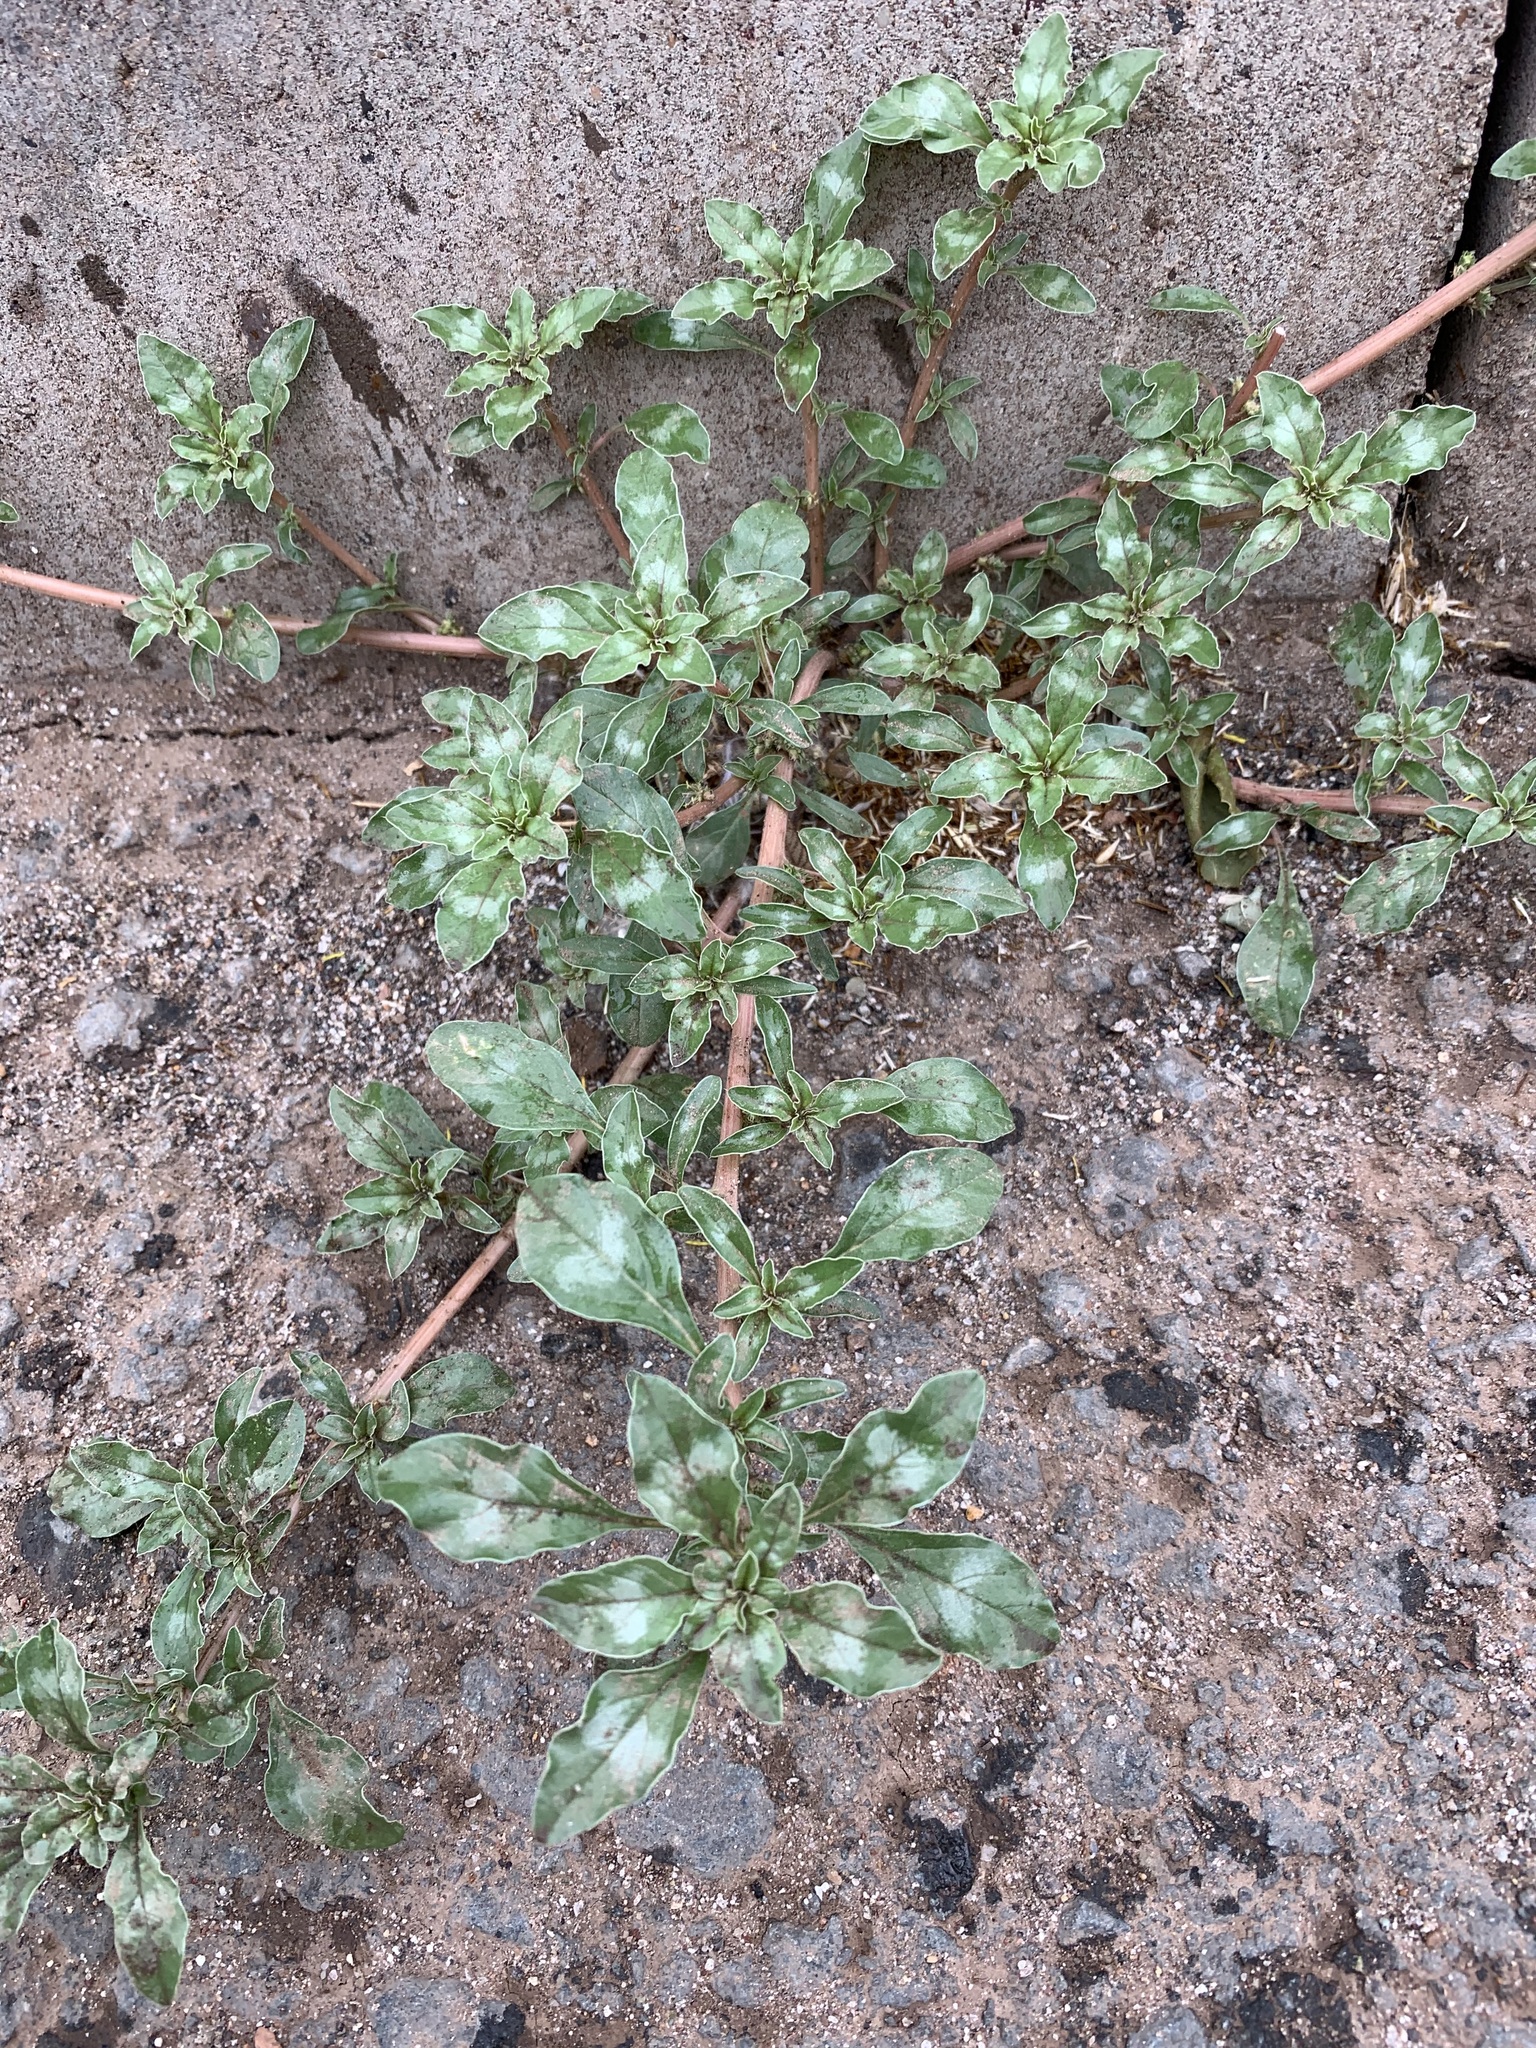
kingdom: Plantae
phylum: Tracheophyta
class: Magnoliopsida
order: Caryophyllales
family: Amaranthaceae
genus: Amaranthus
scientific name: Amaranthus blitoides
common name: Prostrate pigweed
